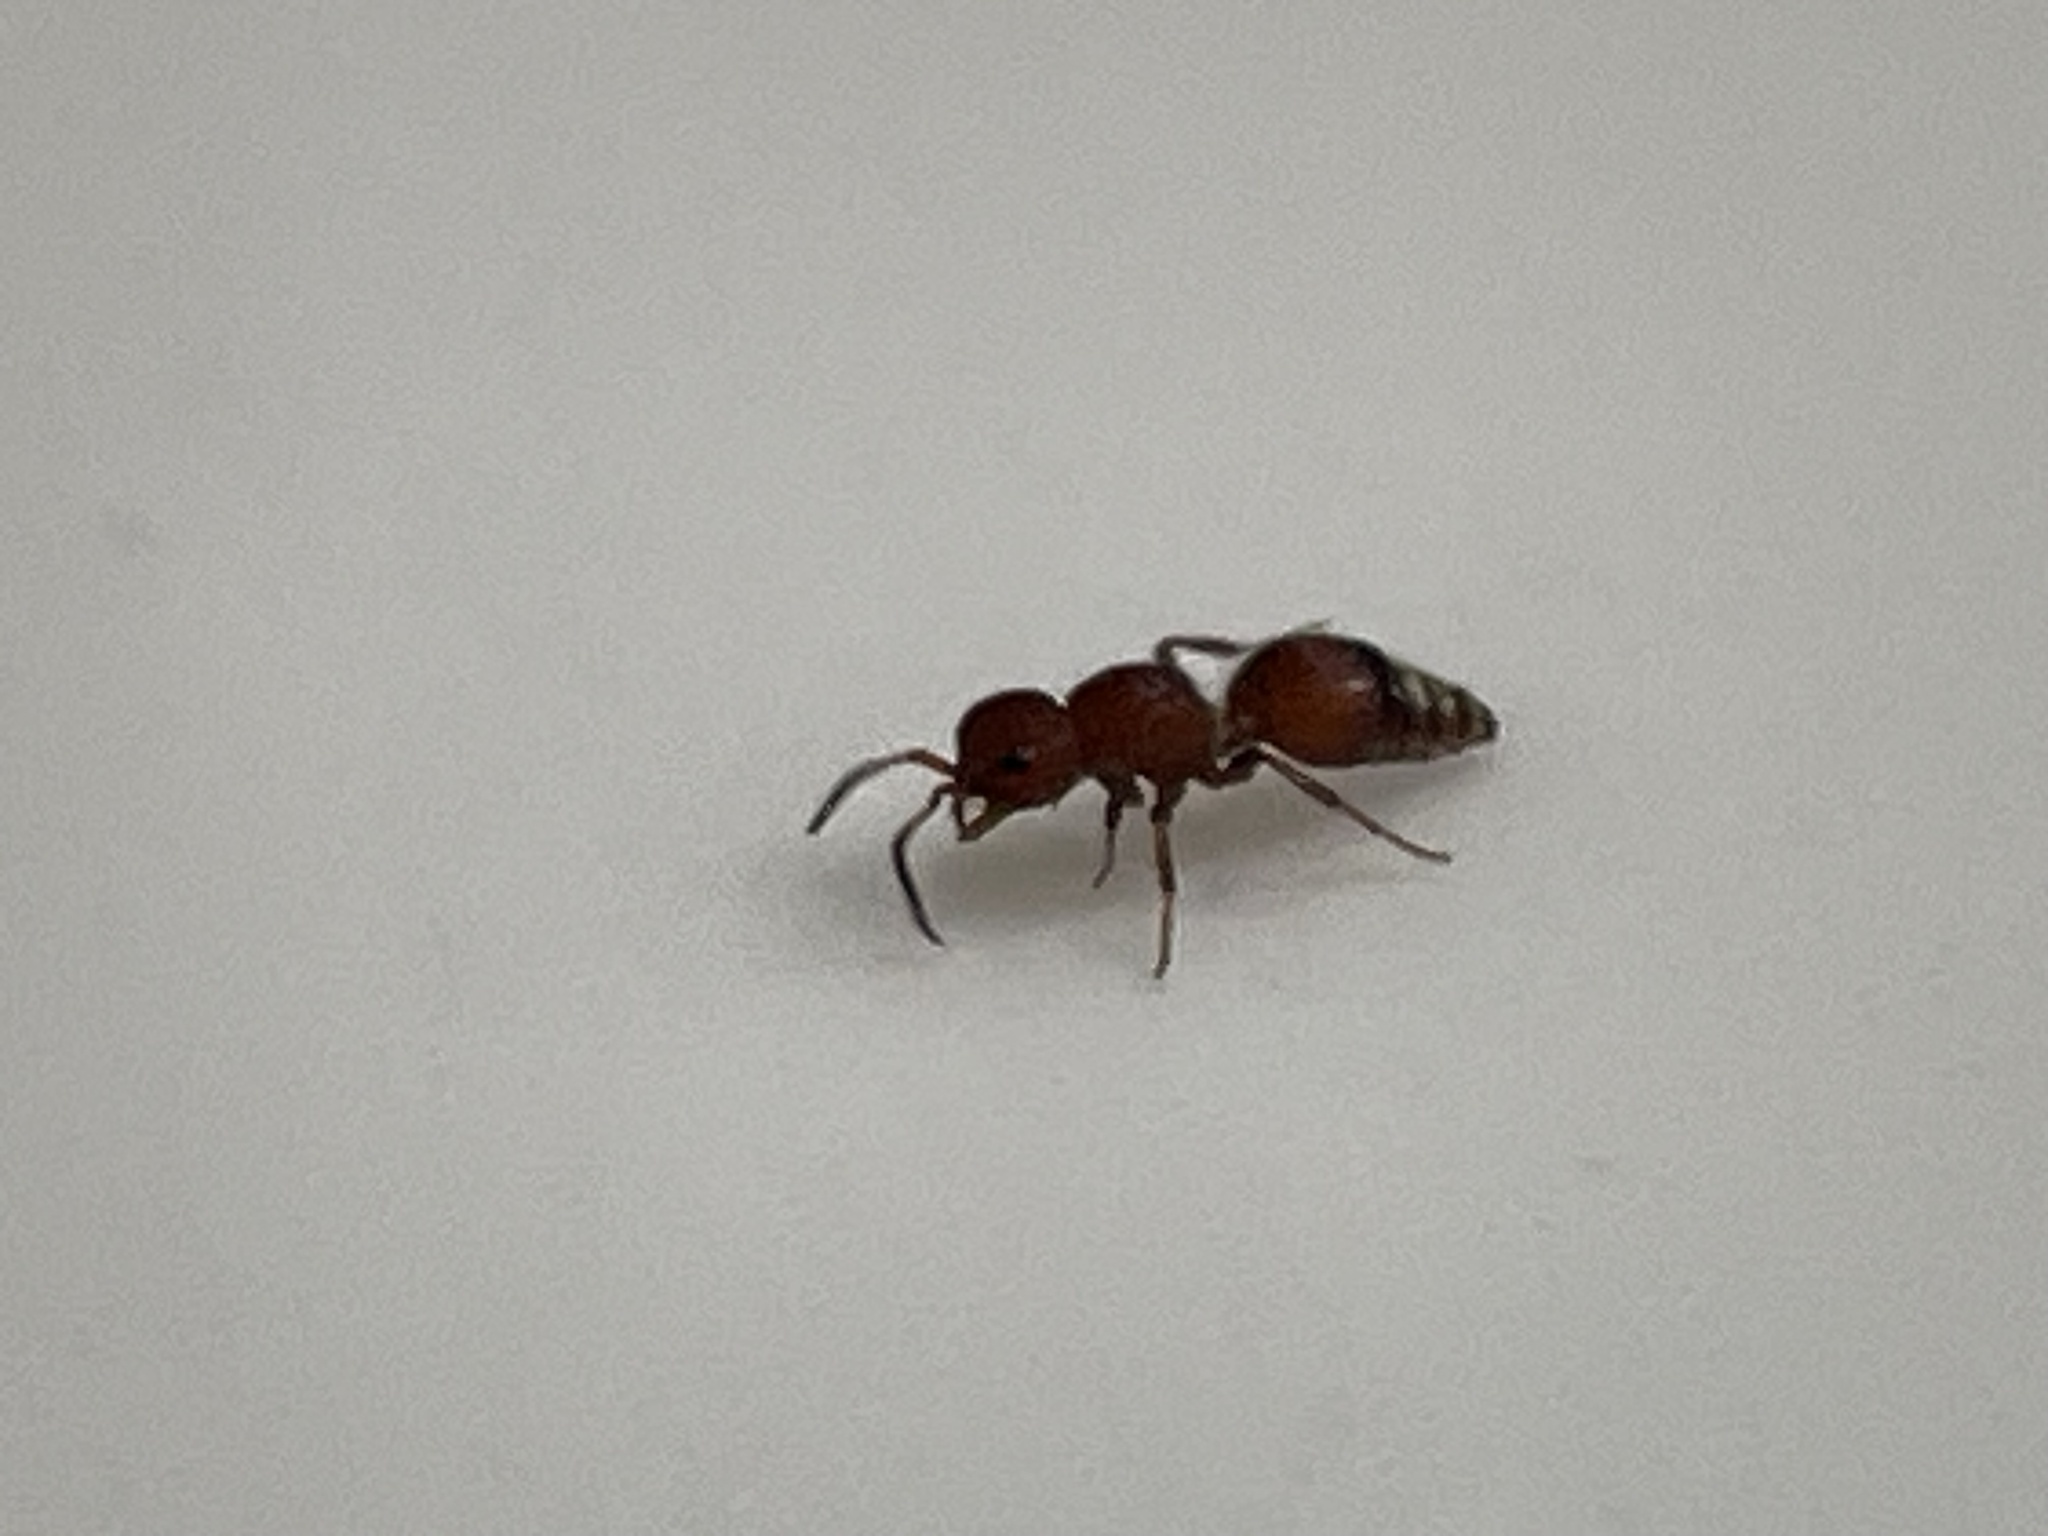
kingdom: Animalia
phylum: Arthropoda
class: Insecta
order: Hymenoptera
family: Mutillidae
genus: Pseudomethoca
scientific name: Pseudomethoca
